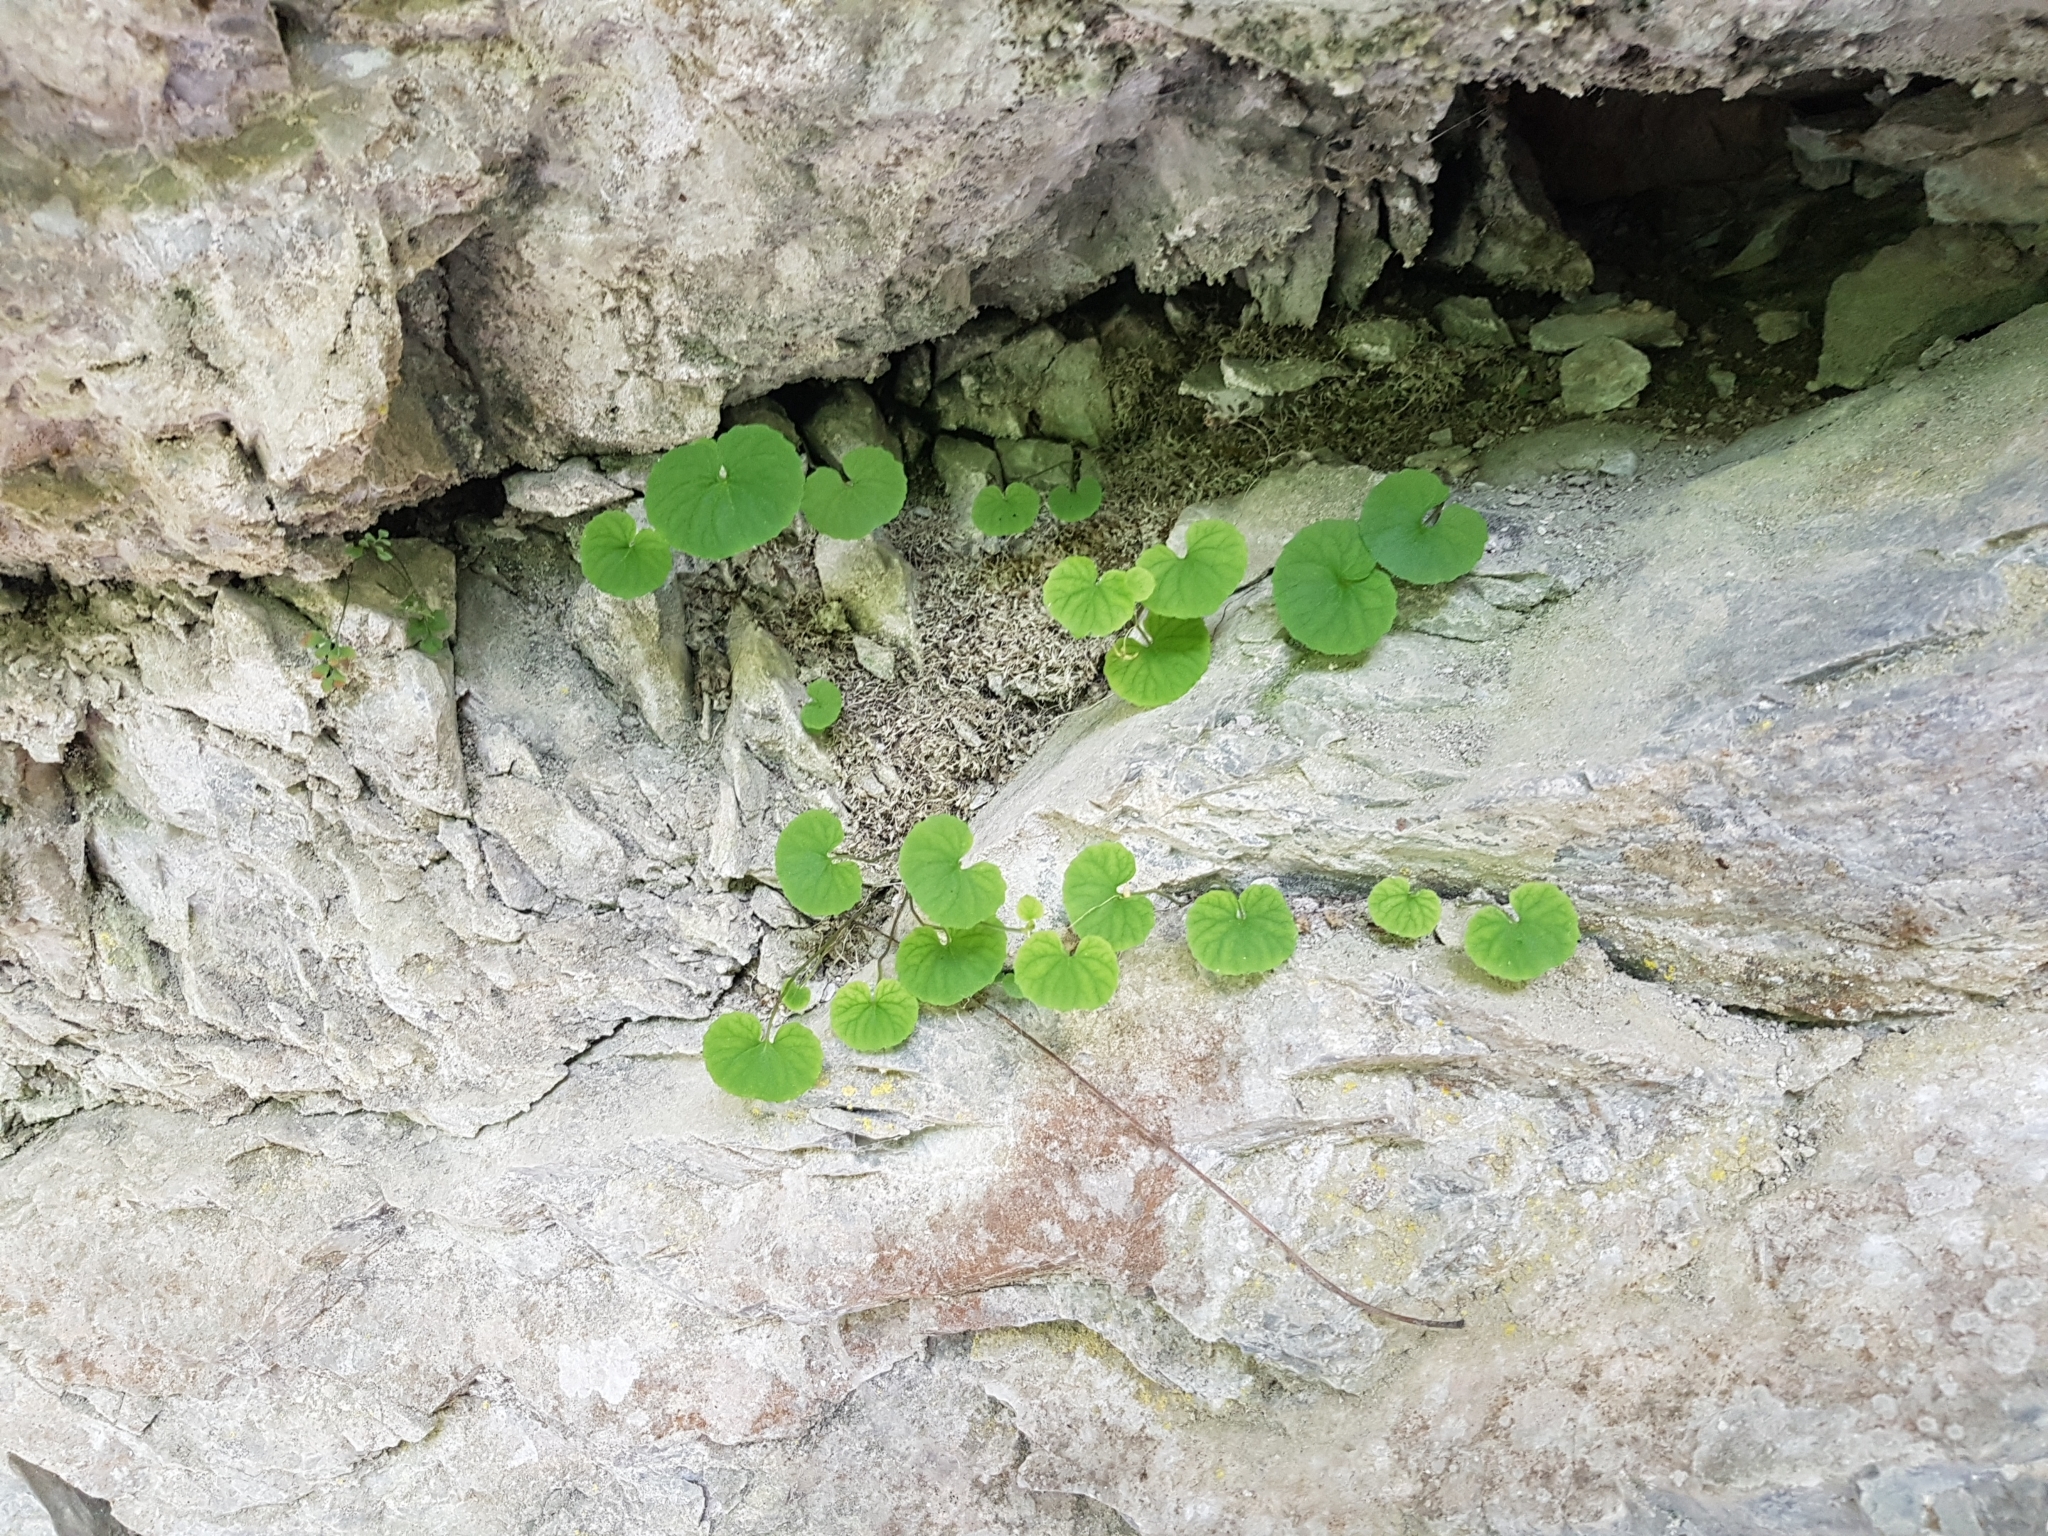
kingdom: Plantae
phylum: Tracheophyta
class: Magnoliopsida
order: Malpighiales
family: Violaceae
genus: Viola
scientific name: Viola biflora
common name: Alpine yellow violet
